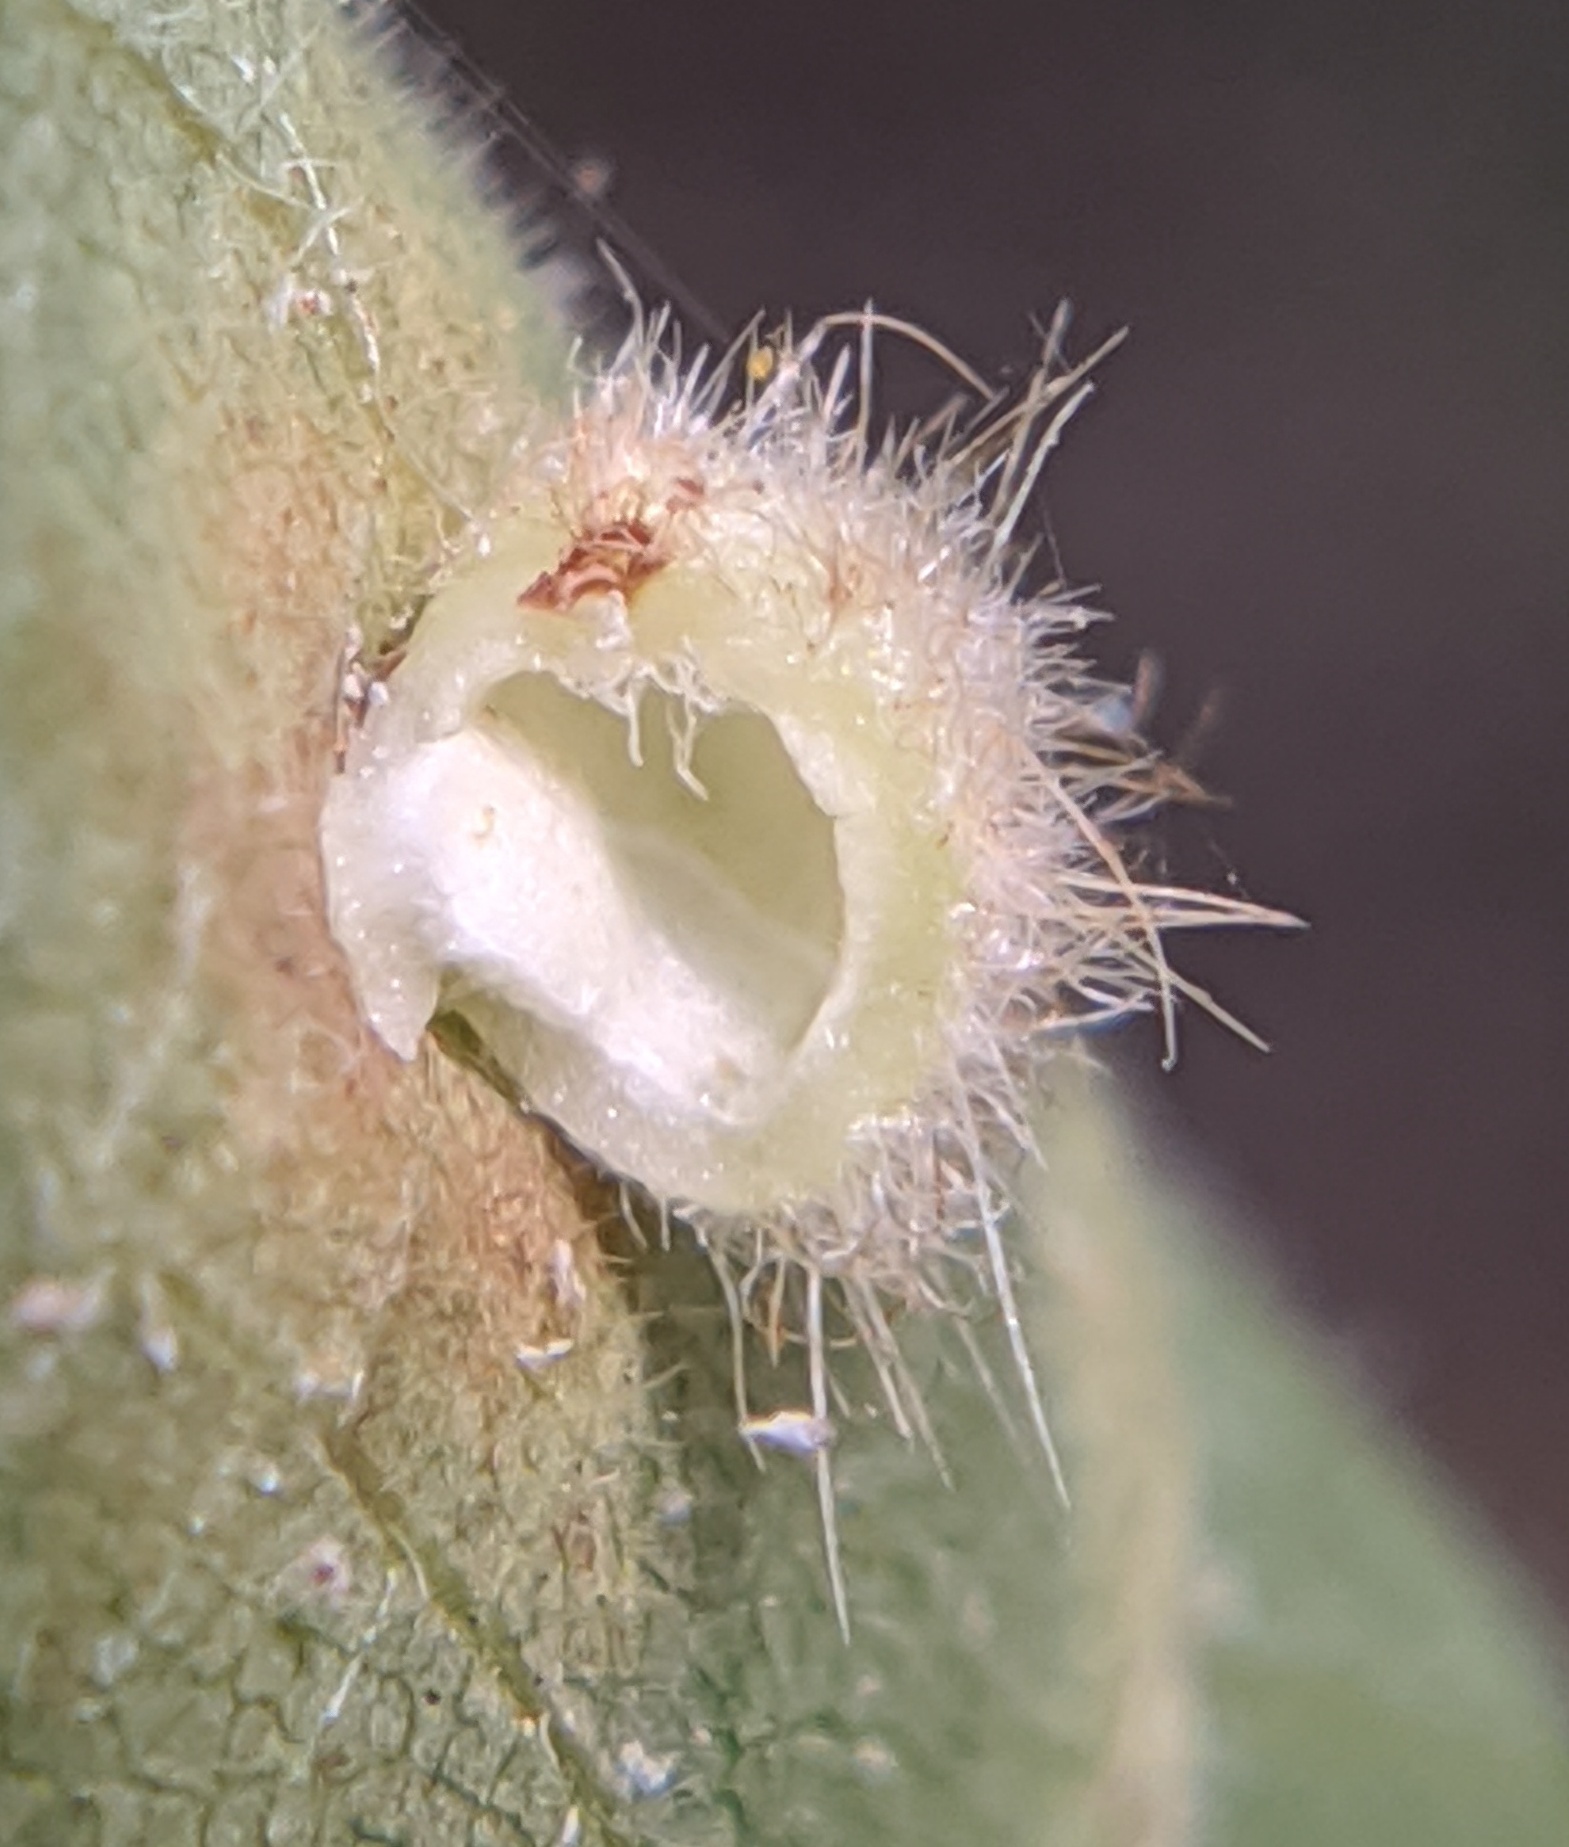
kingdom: Animalia
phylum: Arthropoda
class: Insecta
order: Diptera
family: Cecidomyiidae
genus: Caryomyia
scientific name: Caryomyia thompsoni
